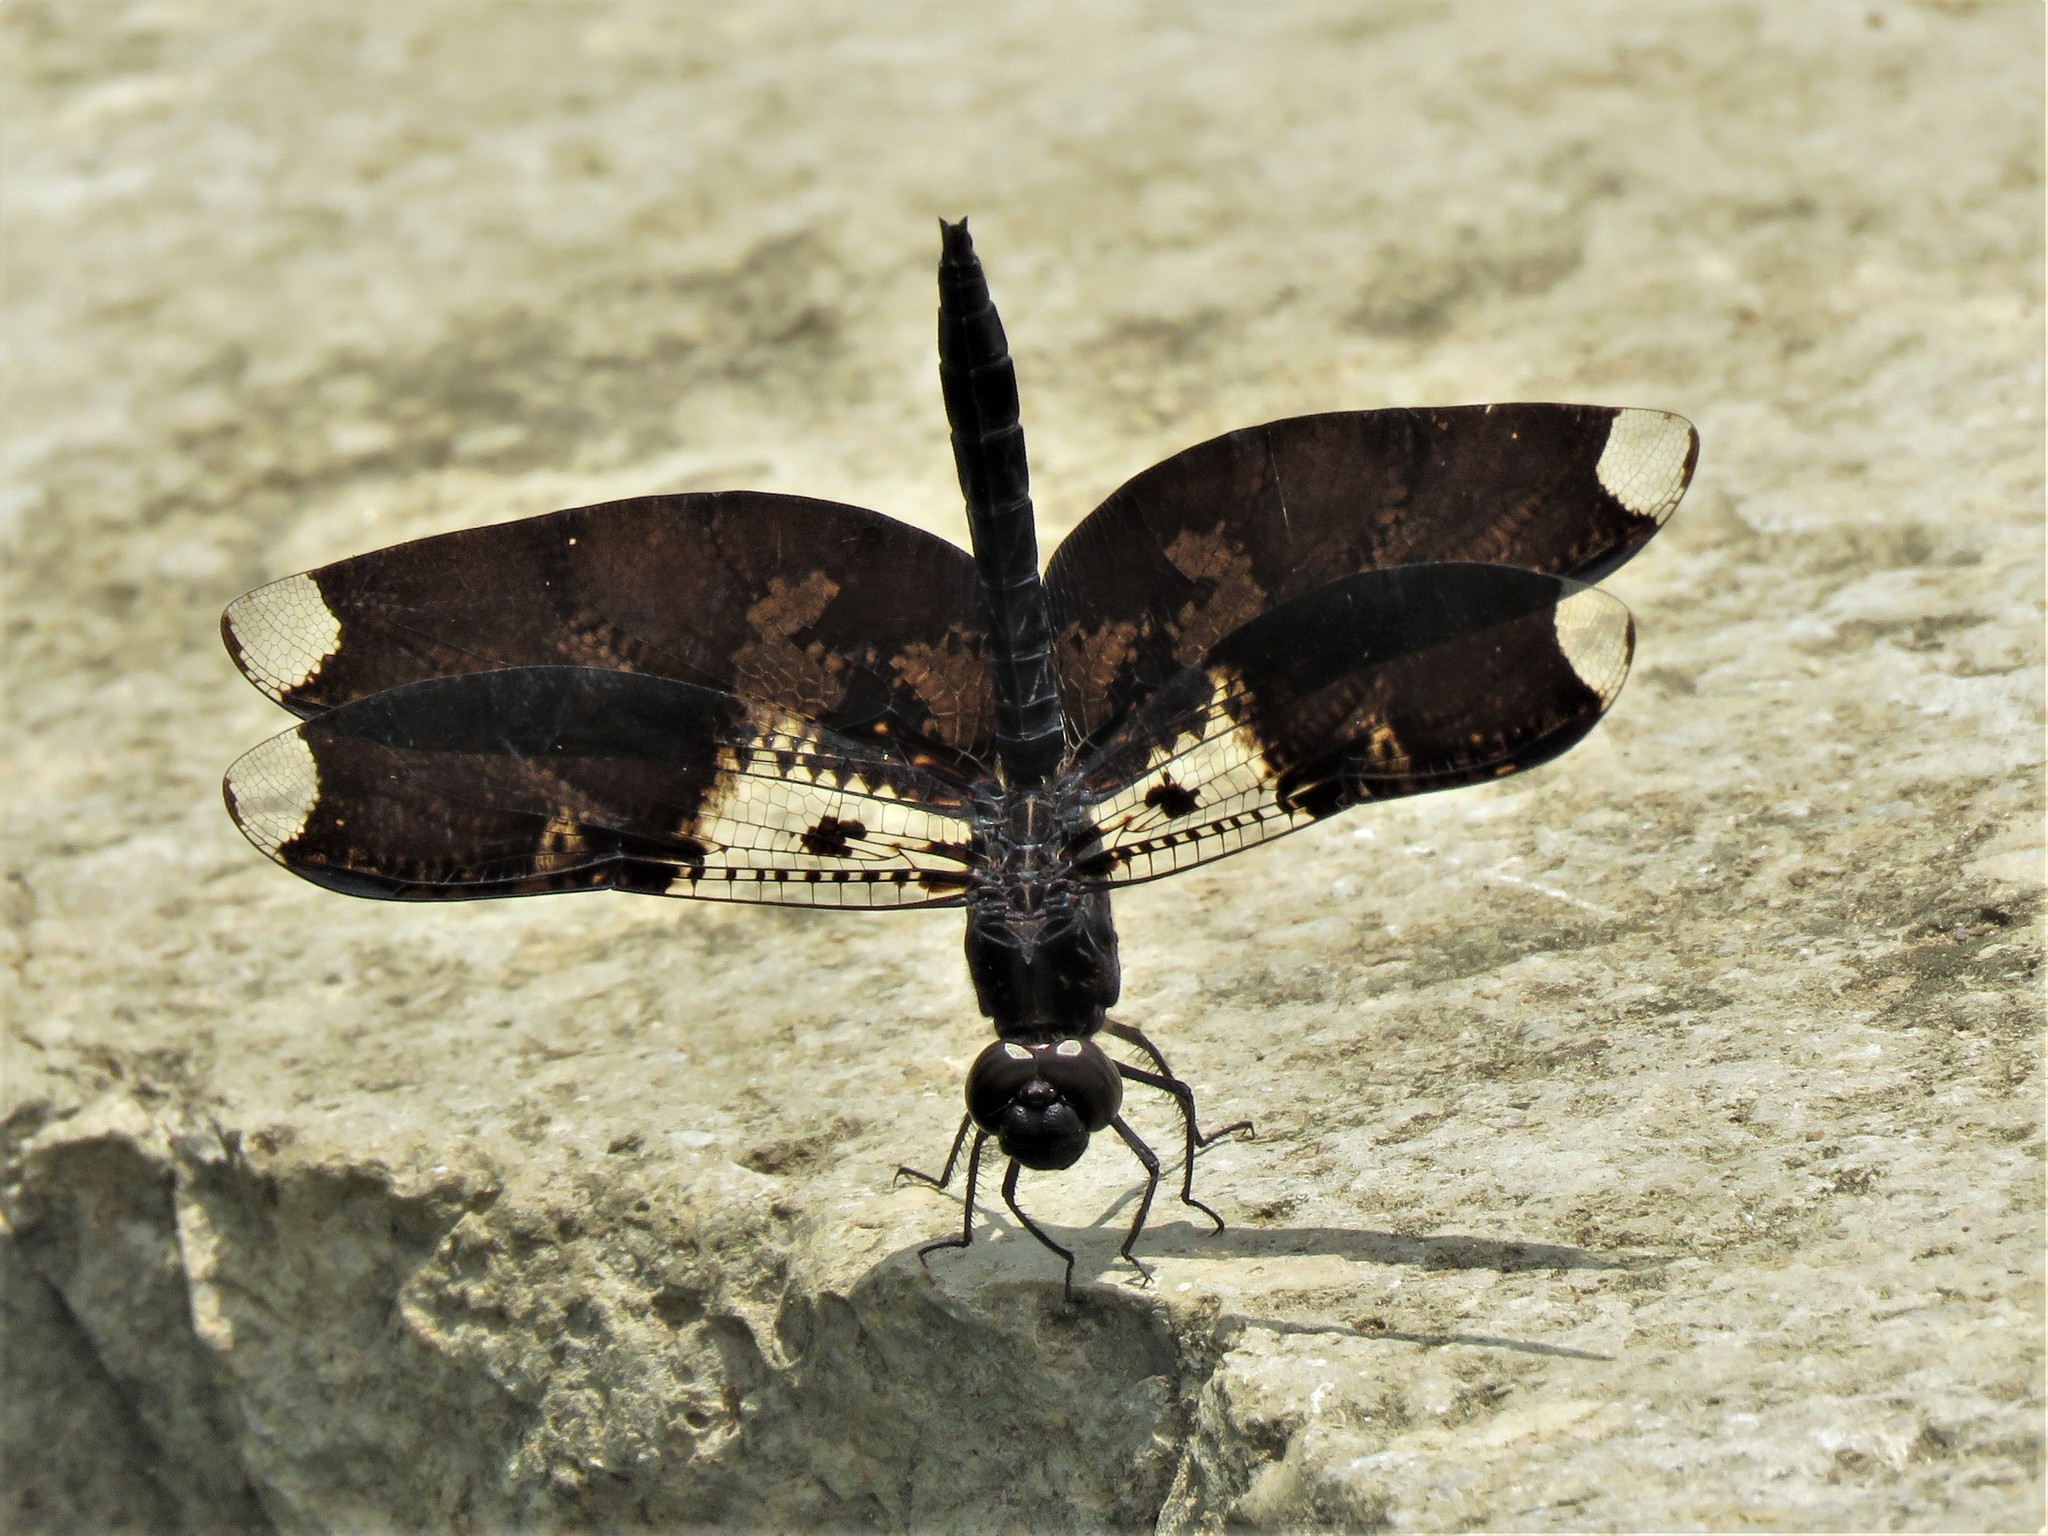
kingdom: Animalia
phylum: Arthropoda
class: Insecta
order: Odonata
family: Libellulidae
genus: Pseudoleon
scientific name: Pseudoleon superbus
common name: Filigree skimmer
